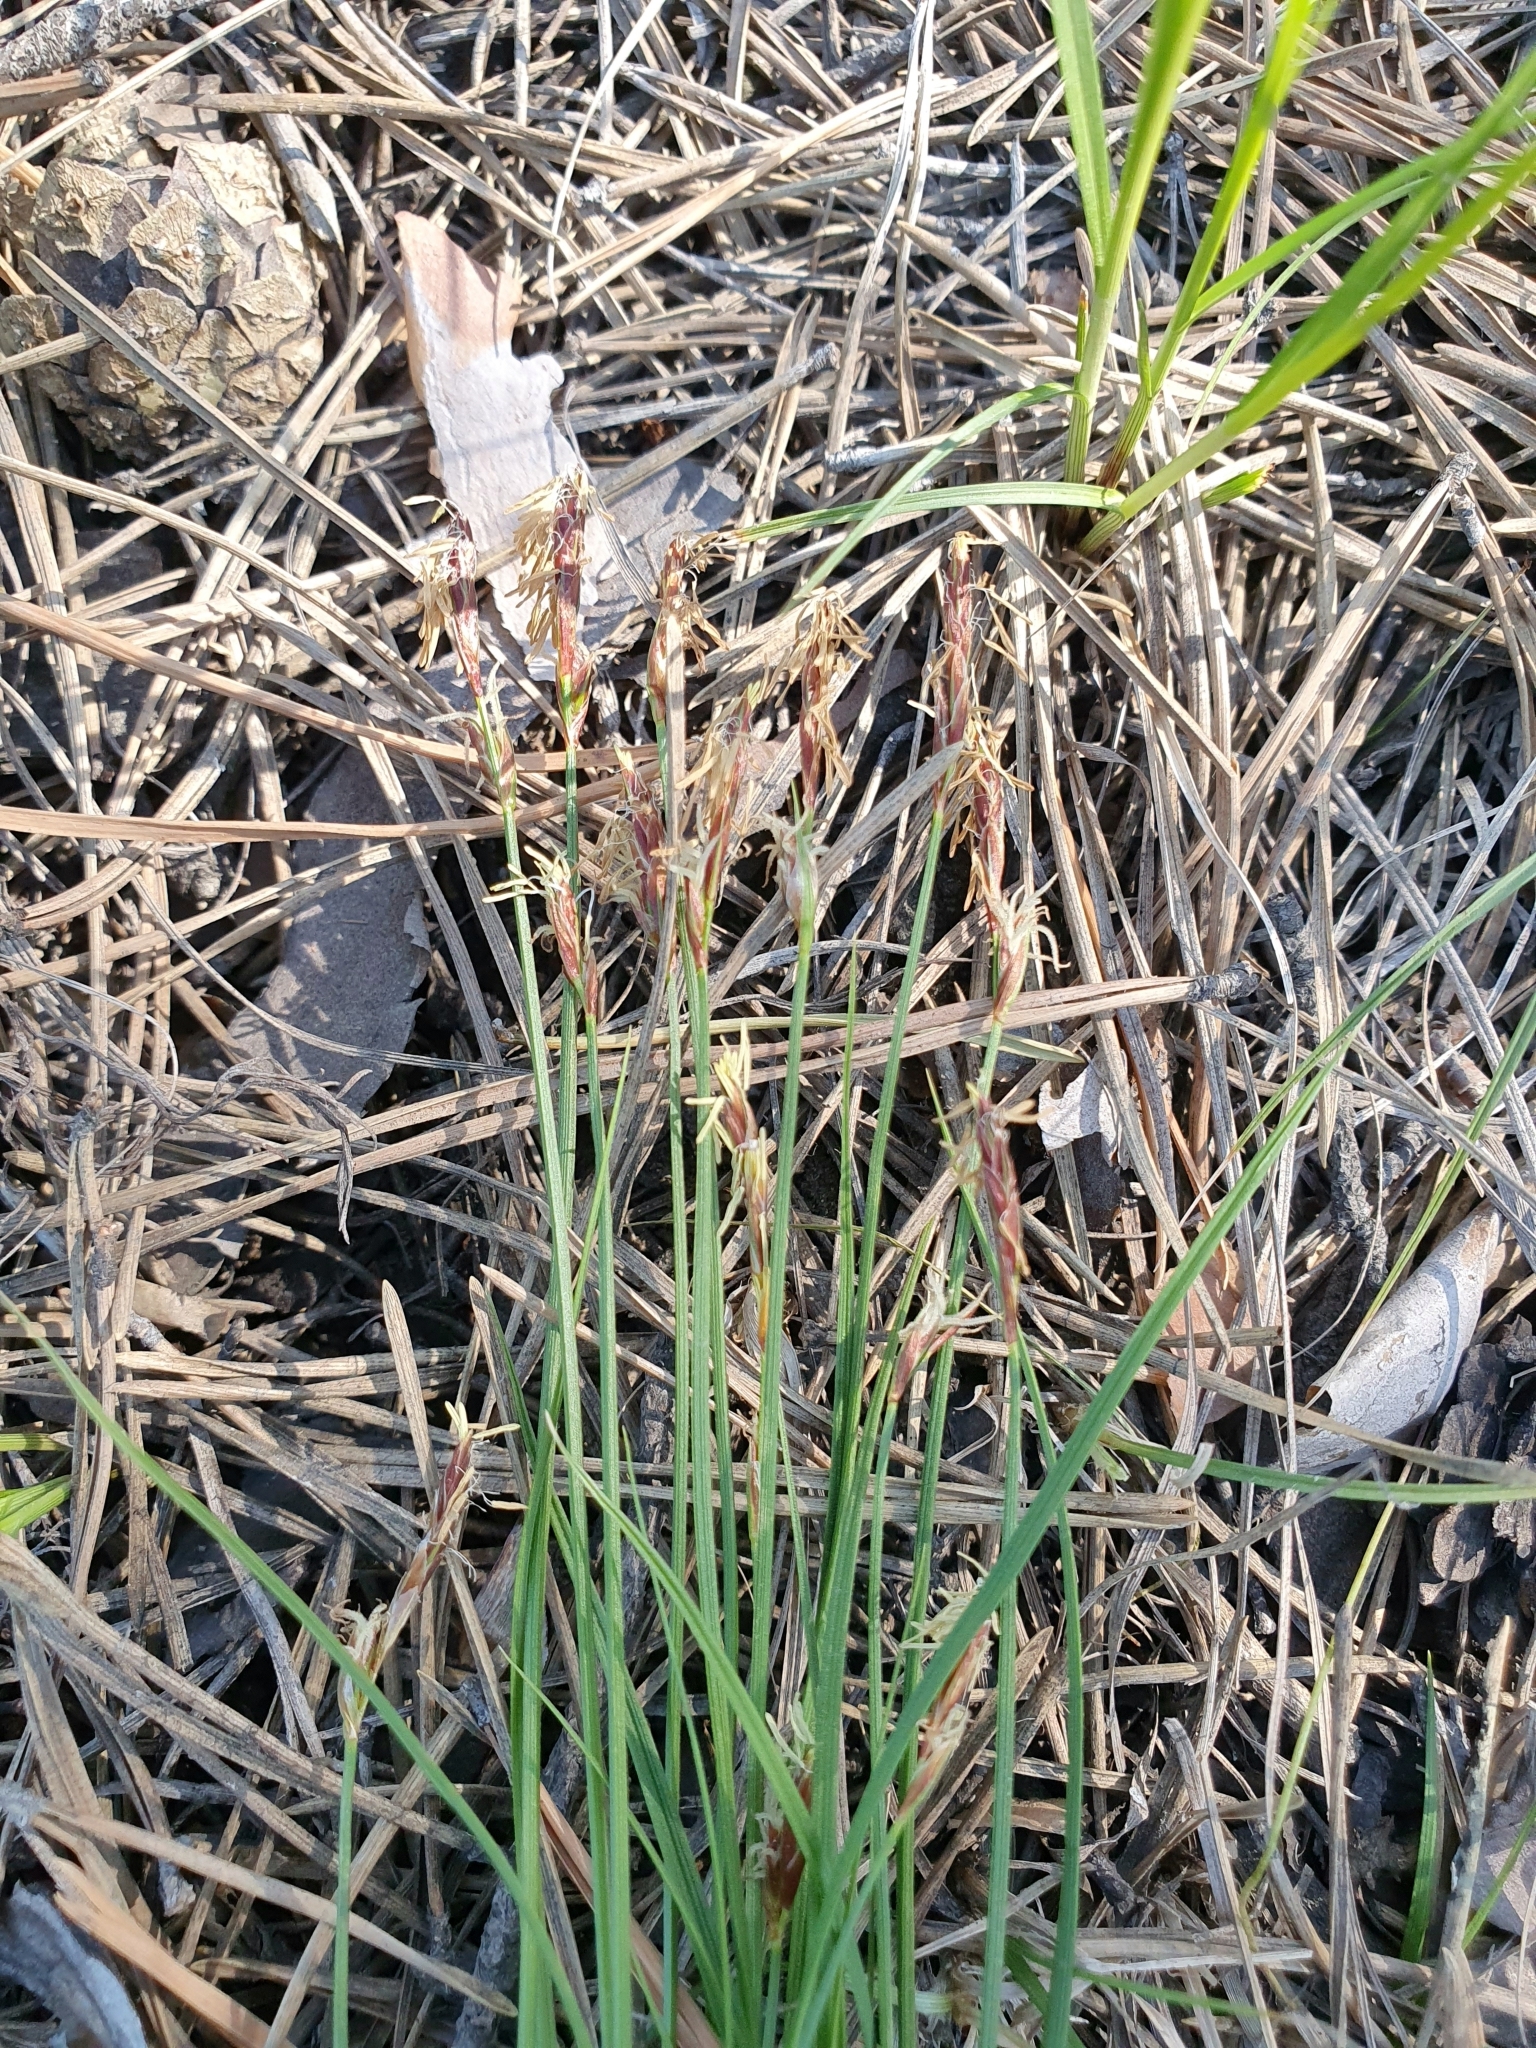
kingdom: Plantae
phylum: Tracheophyta
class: Liliopsida
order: Poales
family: Cyperaceae
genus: Carex
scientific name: Carex praecox
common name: Early sedge
